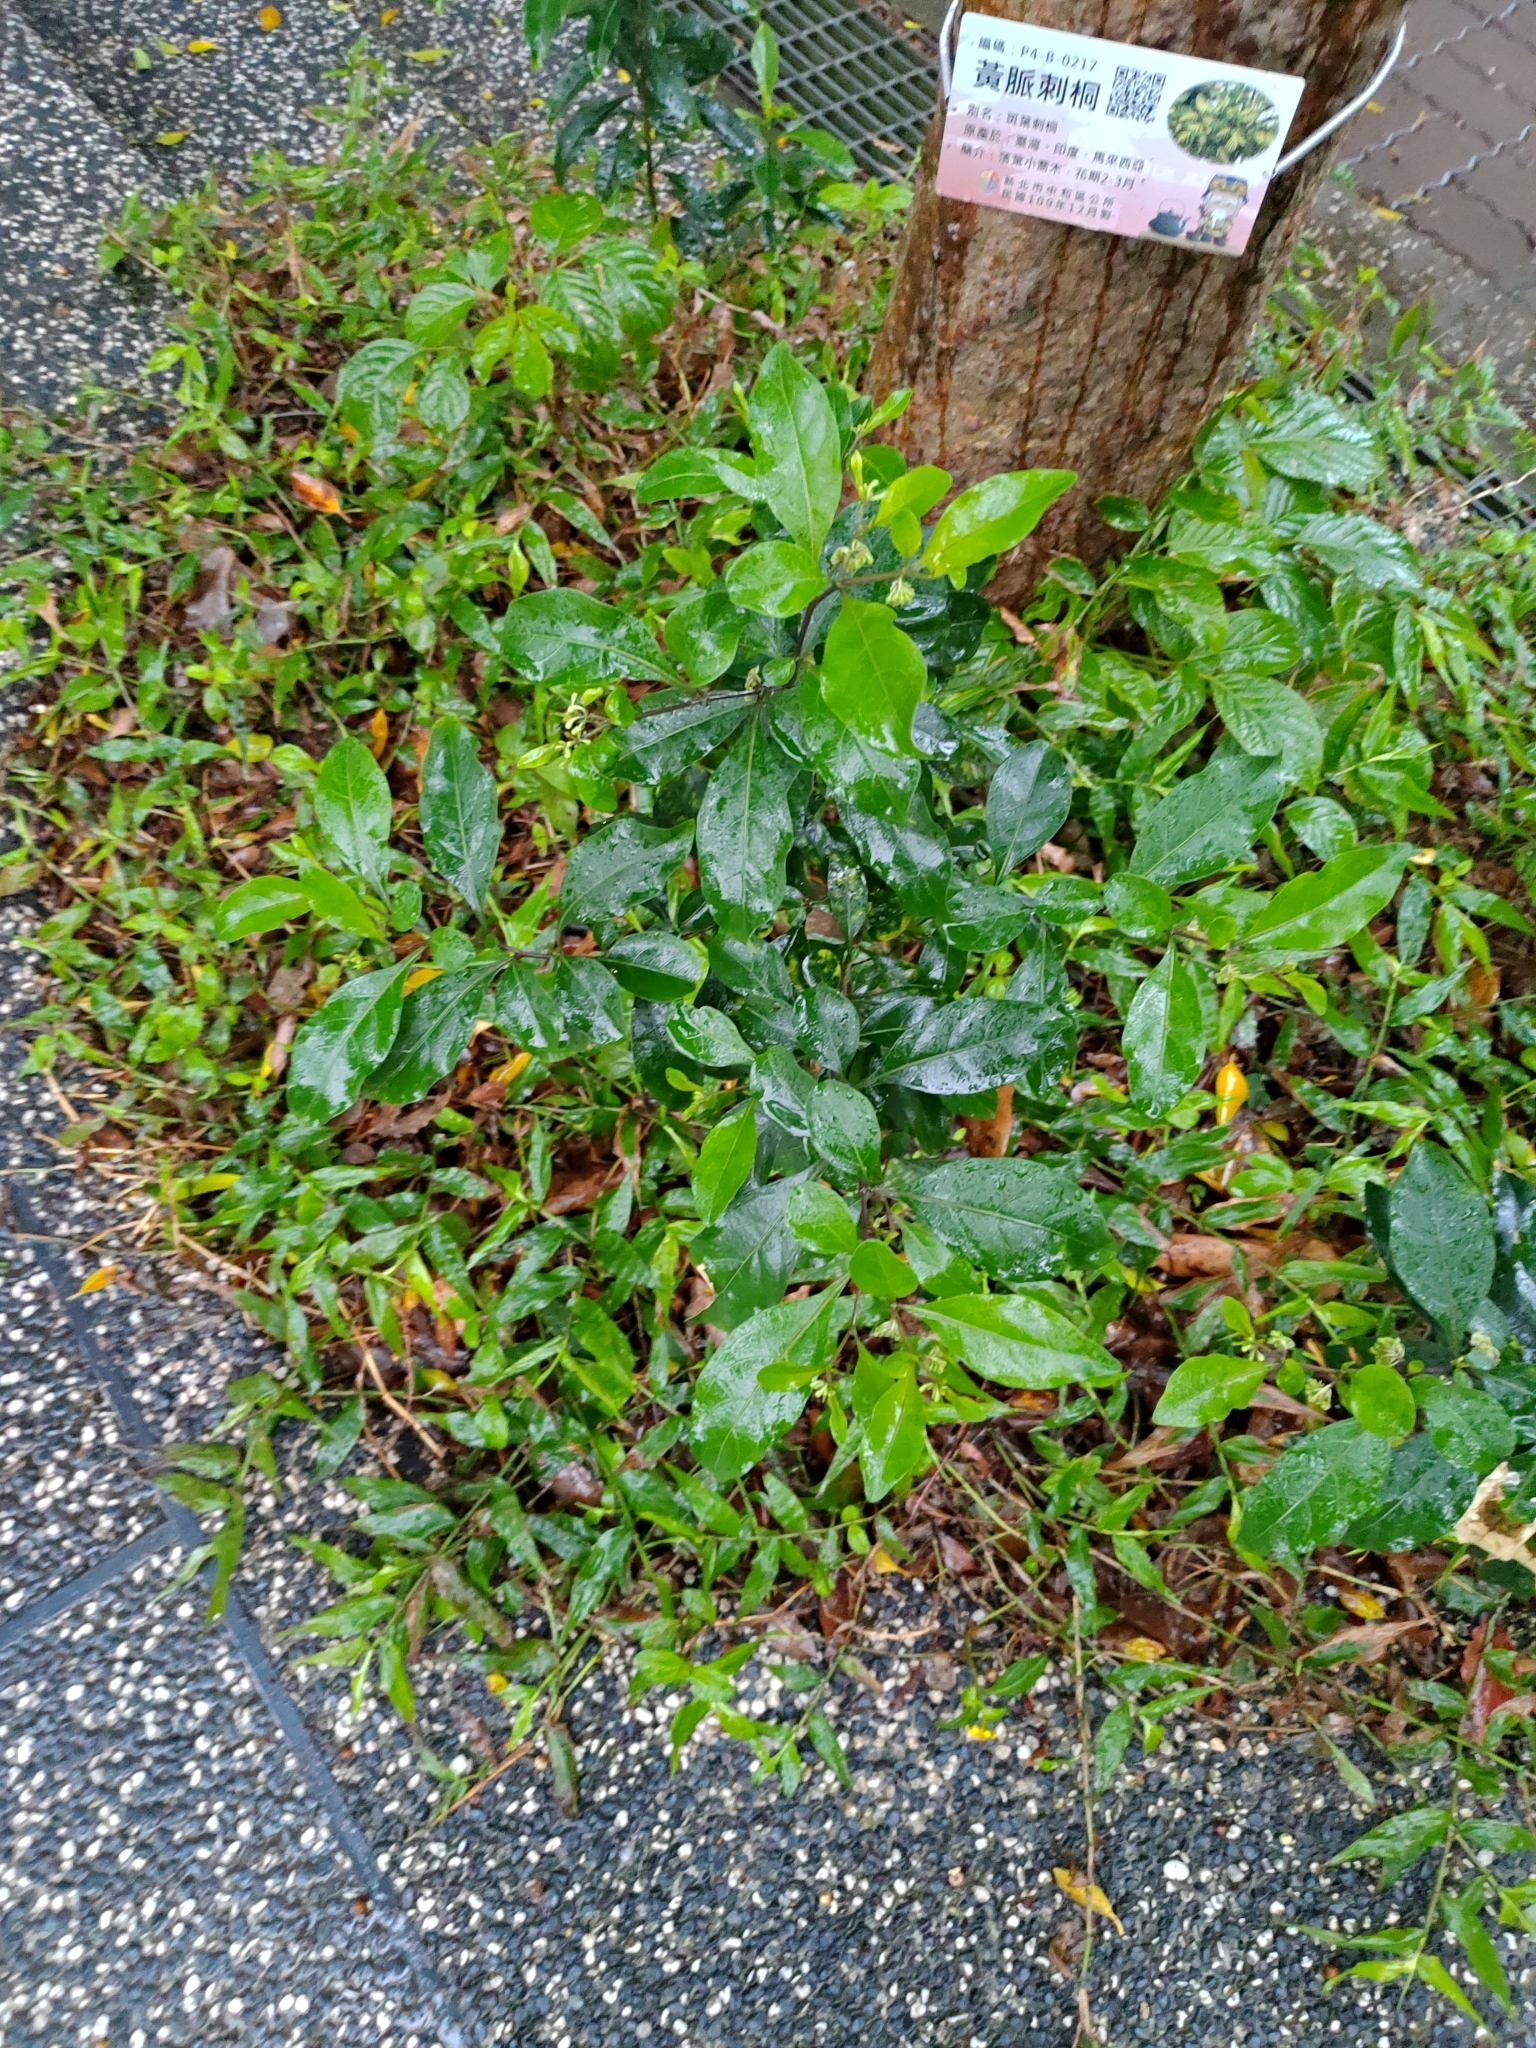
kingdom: Plantae
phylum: Tracheophyta
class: Magnoliopsida
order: Solanales
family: Solanaceae
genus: Solanum
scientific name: Solanum diphyllum
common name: Twoleaf nightshade
